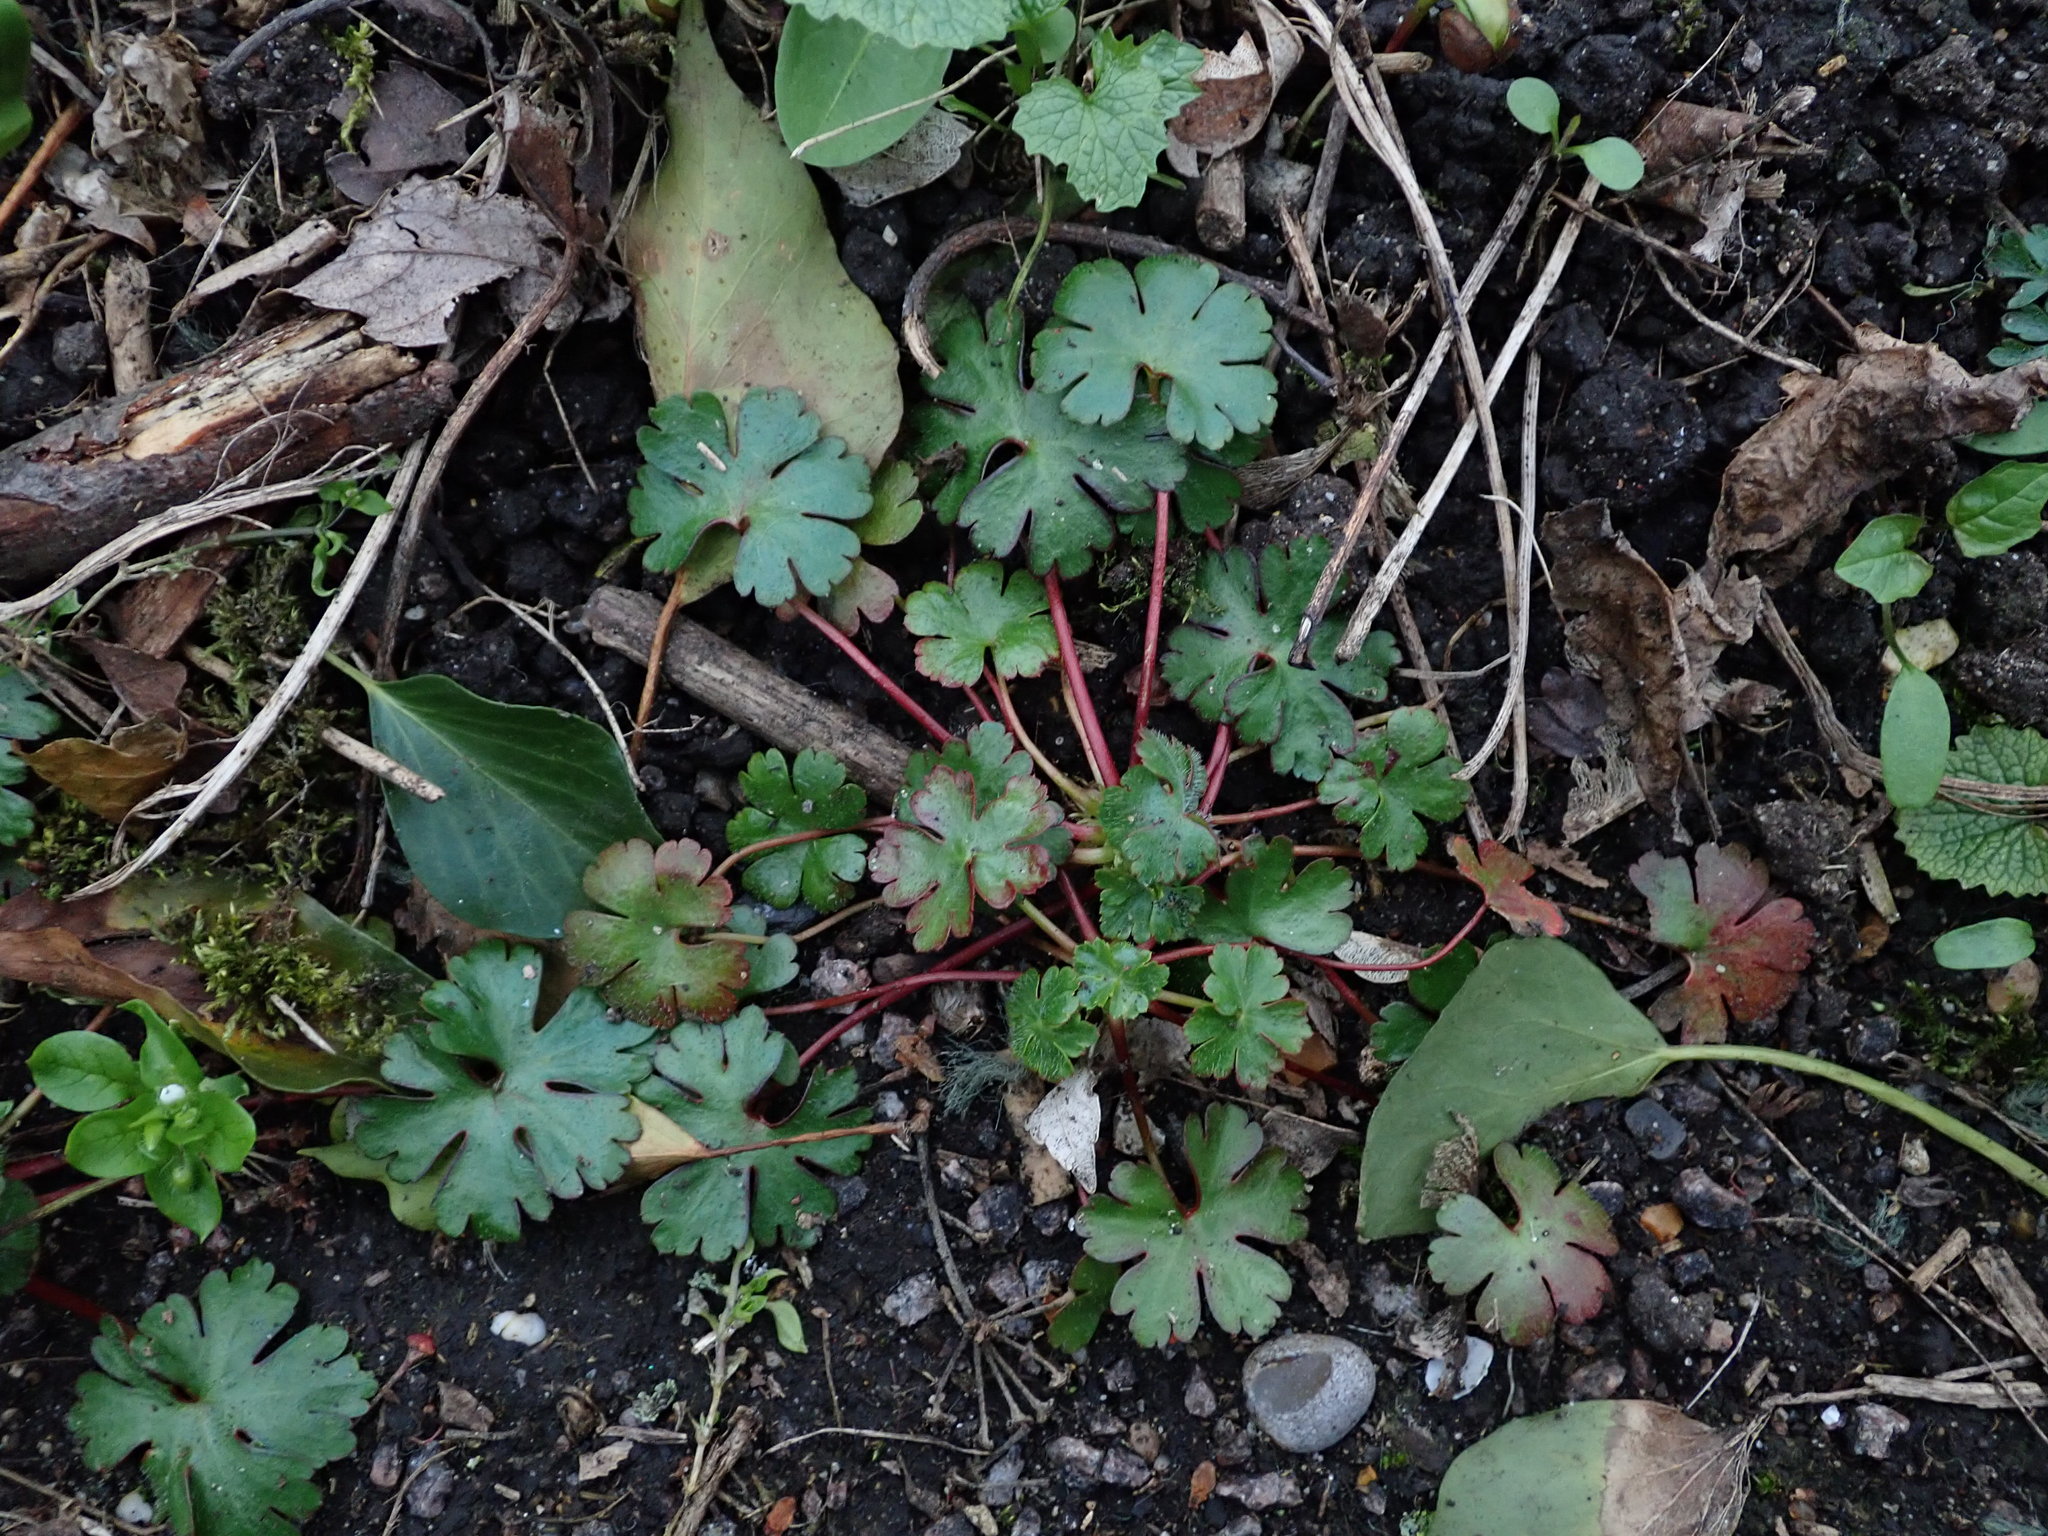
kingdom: Plantae
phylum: Tracheophyta
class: Magnoliopsida
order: Geraniales
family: Geraniaceae
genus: Geranium
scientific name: Geranium lucidum
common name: Shining crane's-bill
